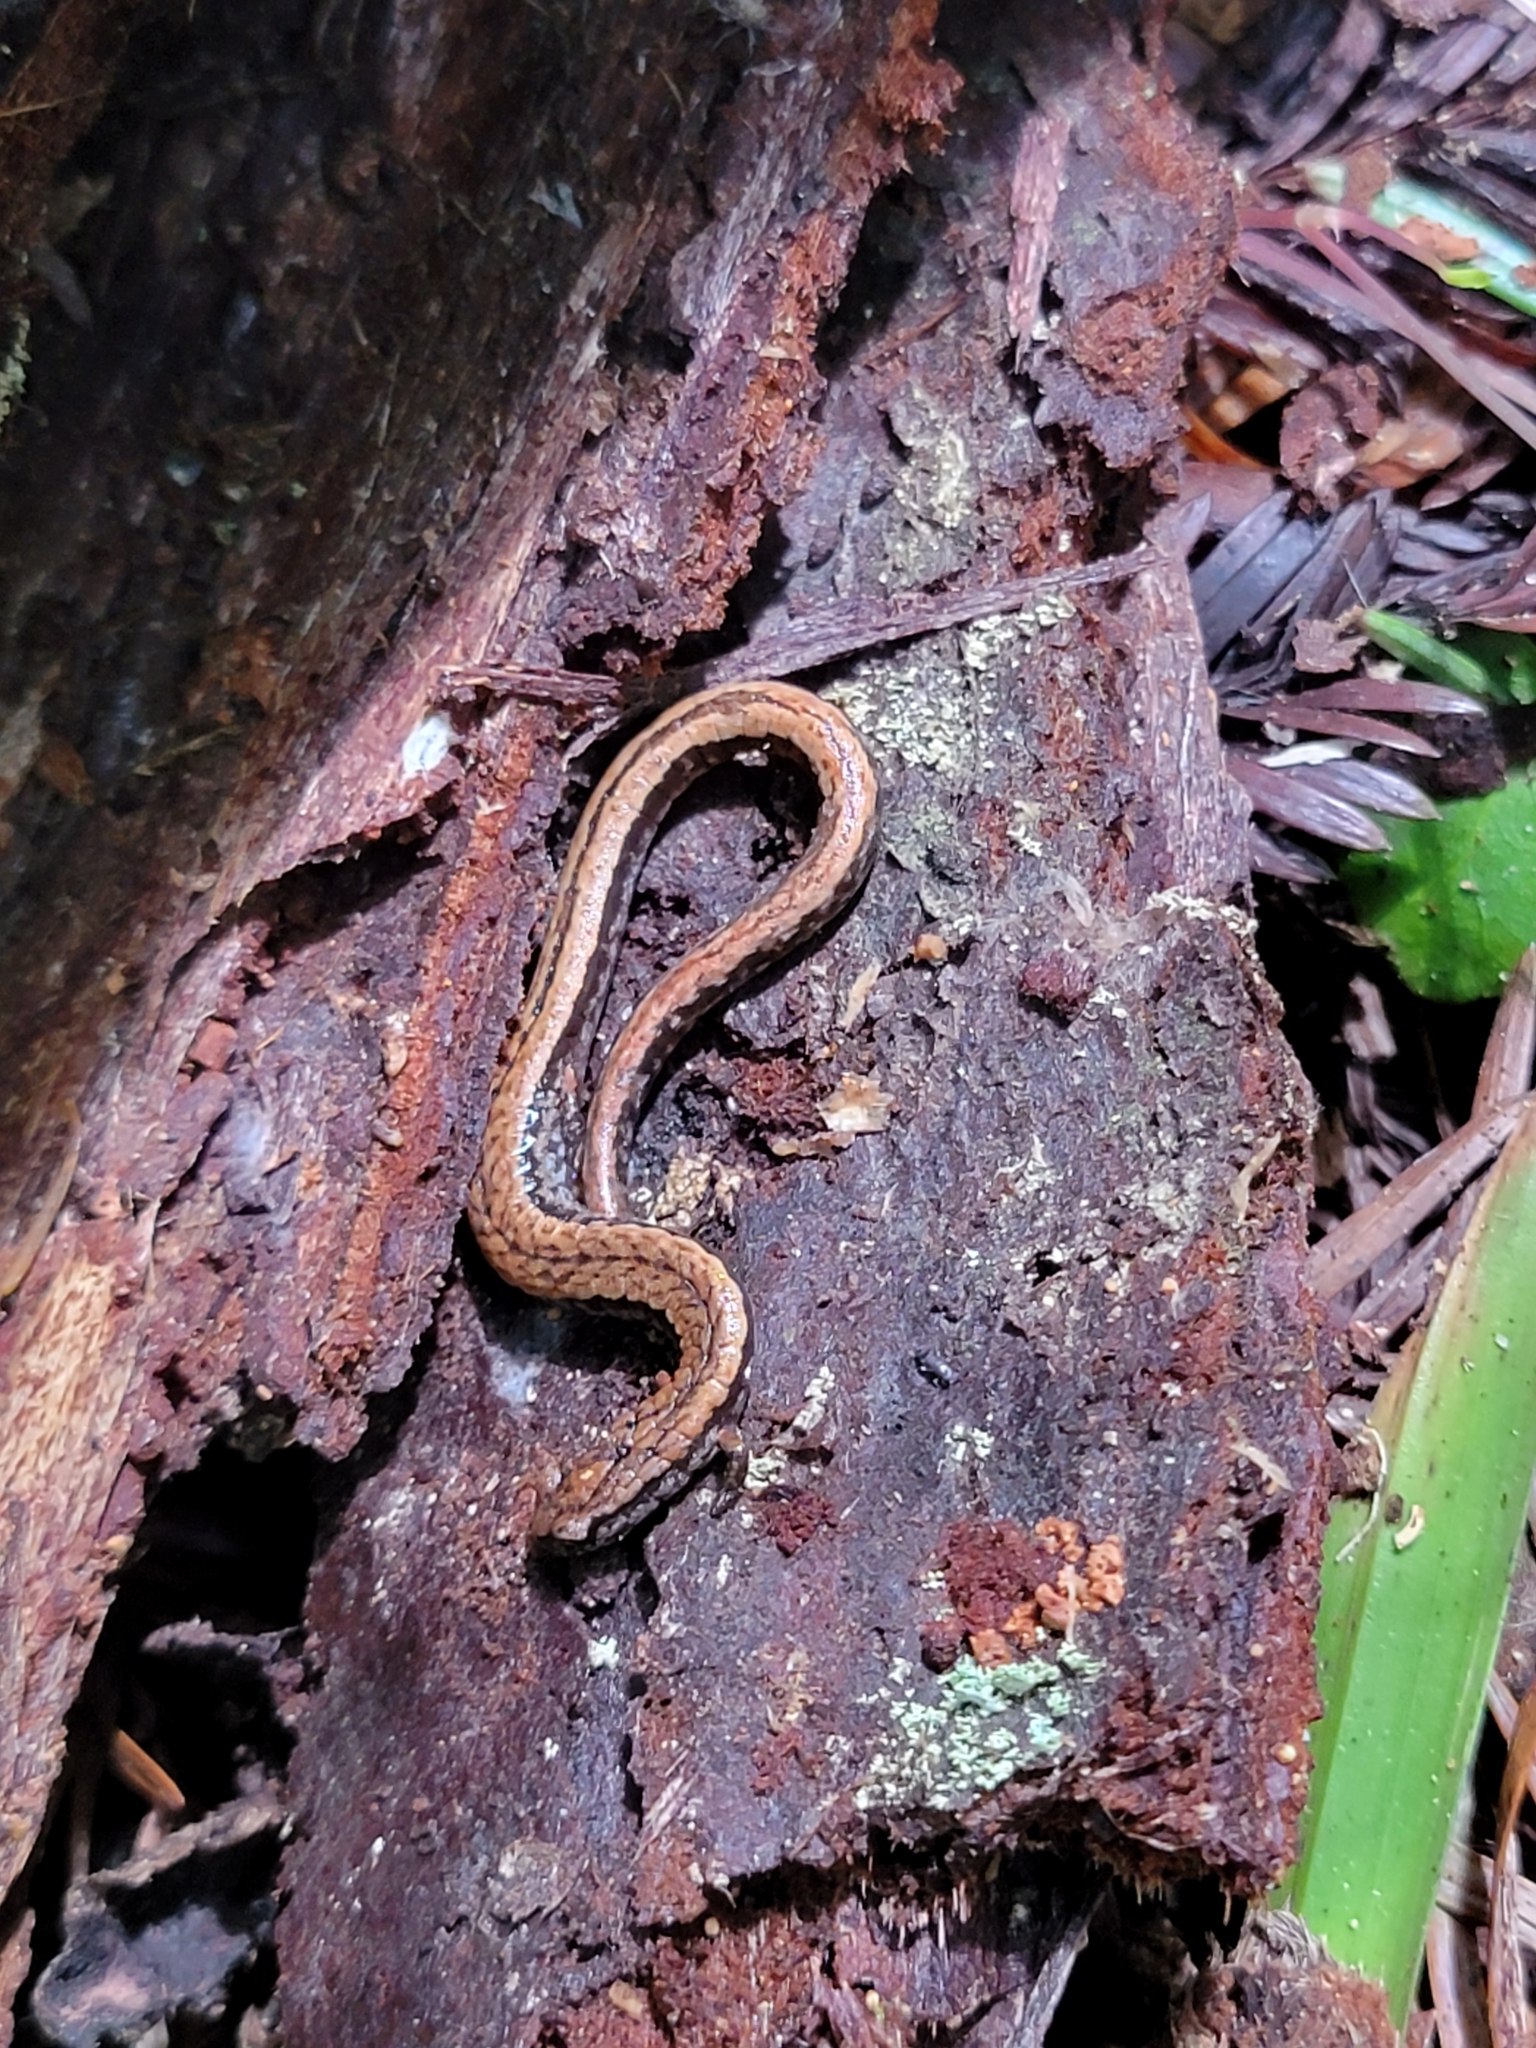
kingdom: Animalia
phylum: Chordata
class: Amphibia
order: Caudata
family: Plethodontidae
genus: Batrachoseps
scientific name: Batrachoseps attenuatus
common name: California slender salamander
